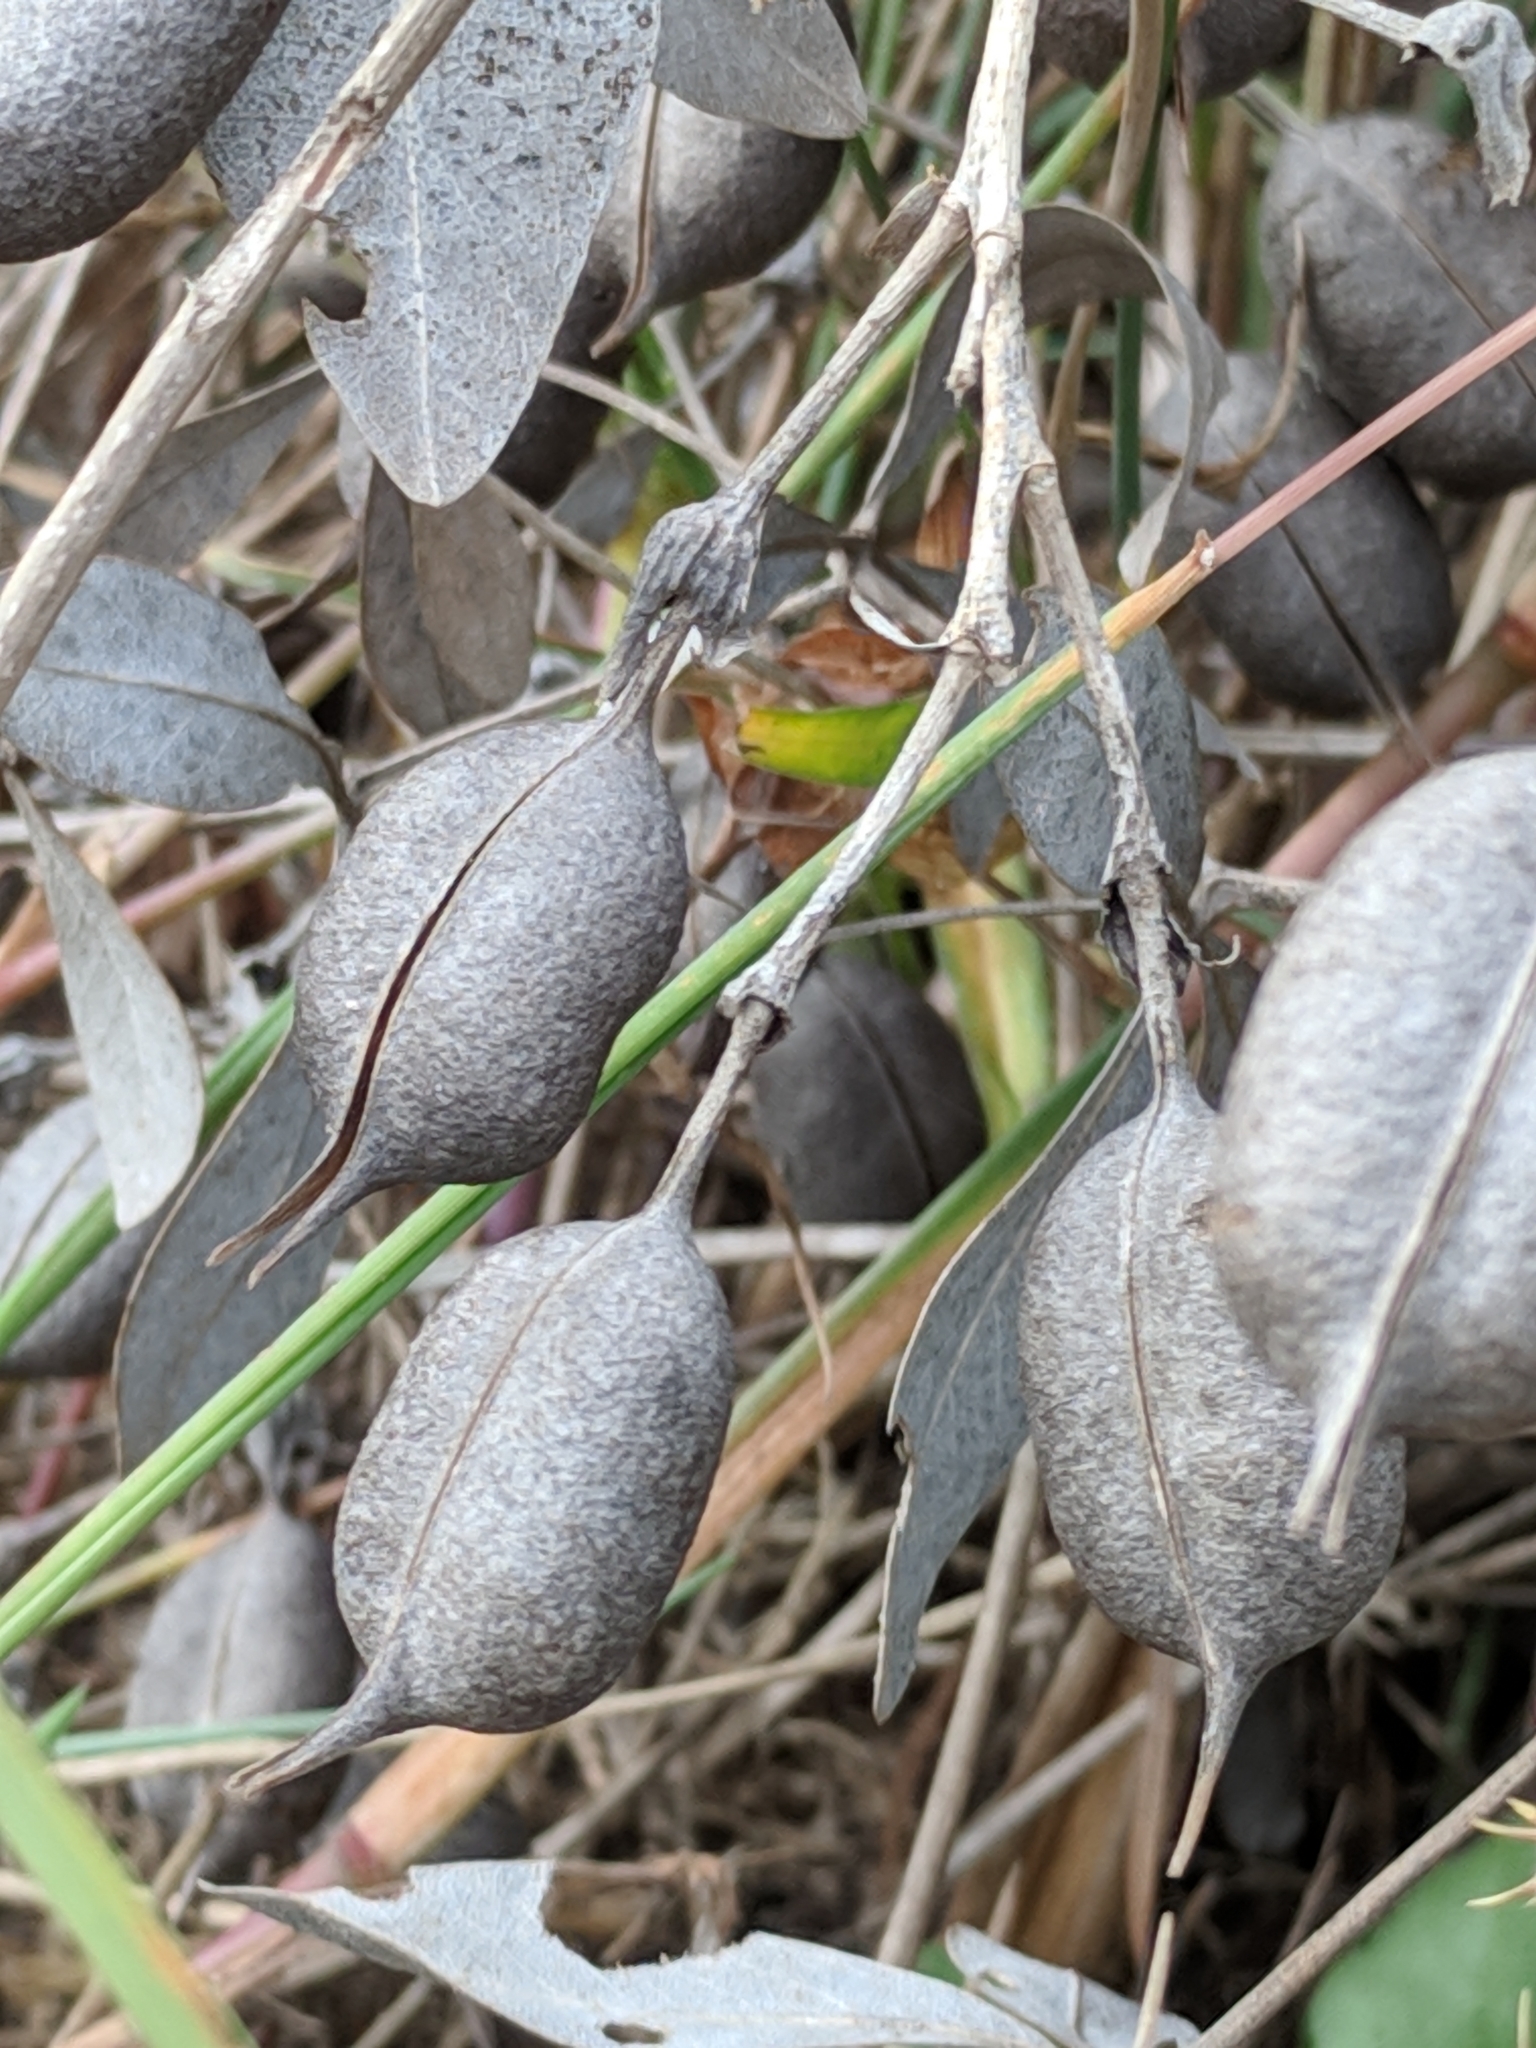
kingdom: Plantae
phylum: Tracheophyta
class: Magnoliopsida
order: Fabales
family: Fabaceae
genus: Baptisia
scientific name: Baptisia bracteata
